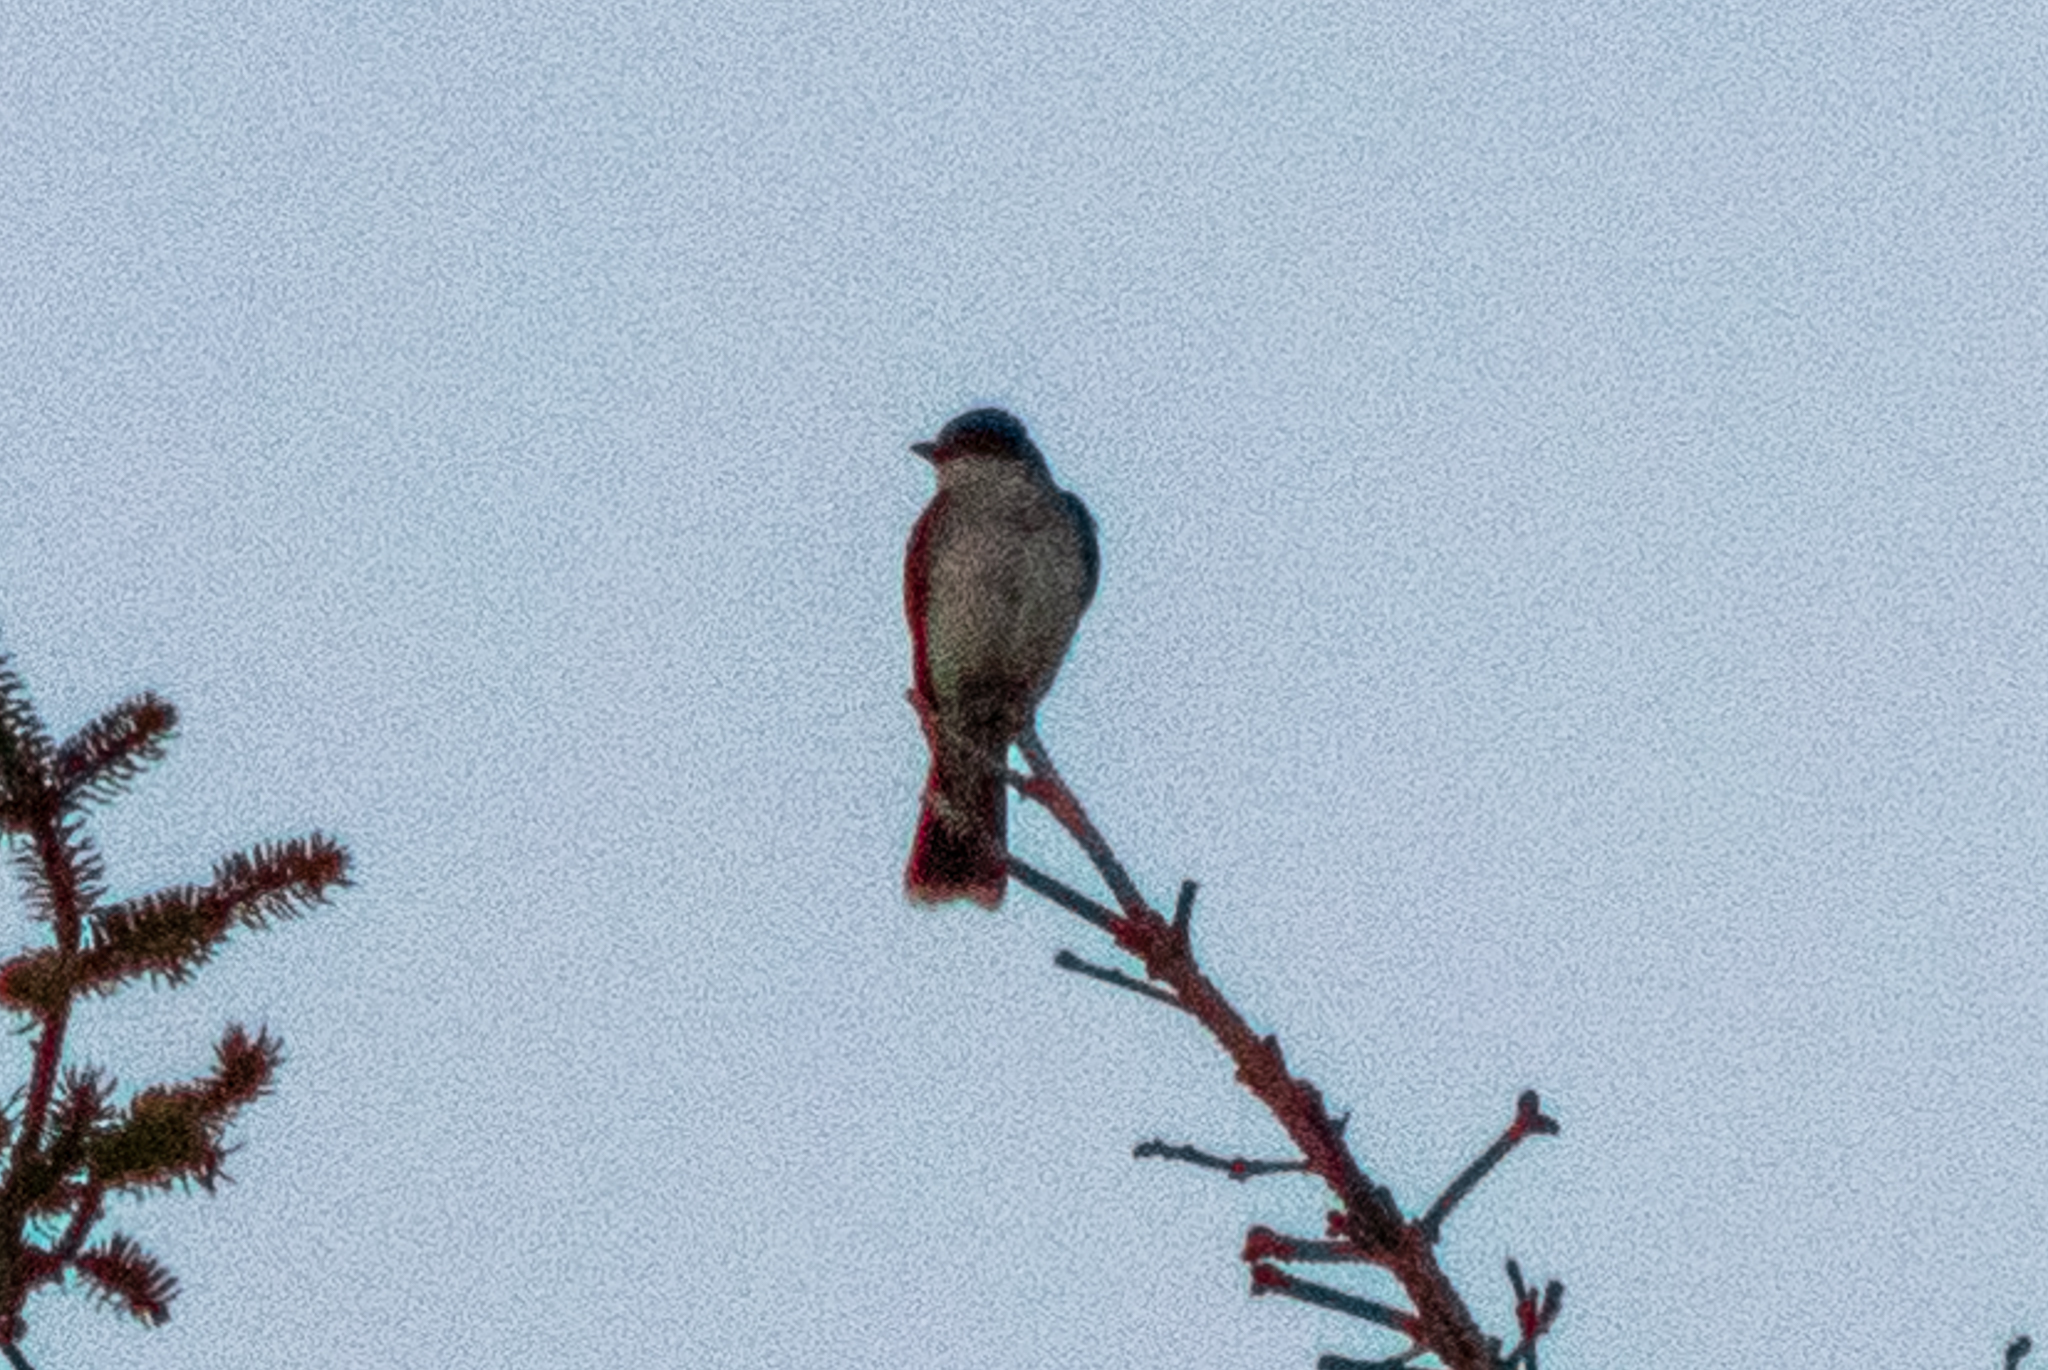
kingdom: Animalia
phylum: Chordata
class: Aves
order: Passeriformes
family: Tyrannidae
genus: Tyrannus
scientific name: Tyrannus tyrannus
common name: Eastern kingbird
